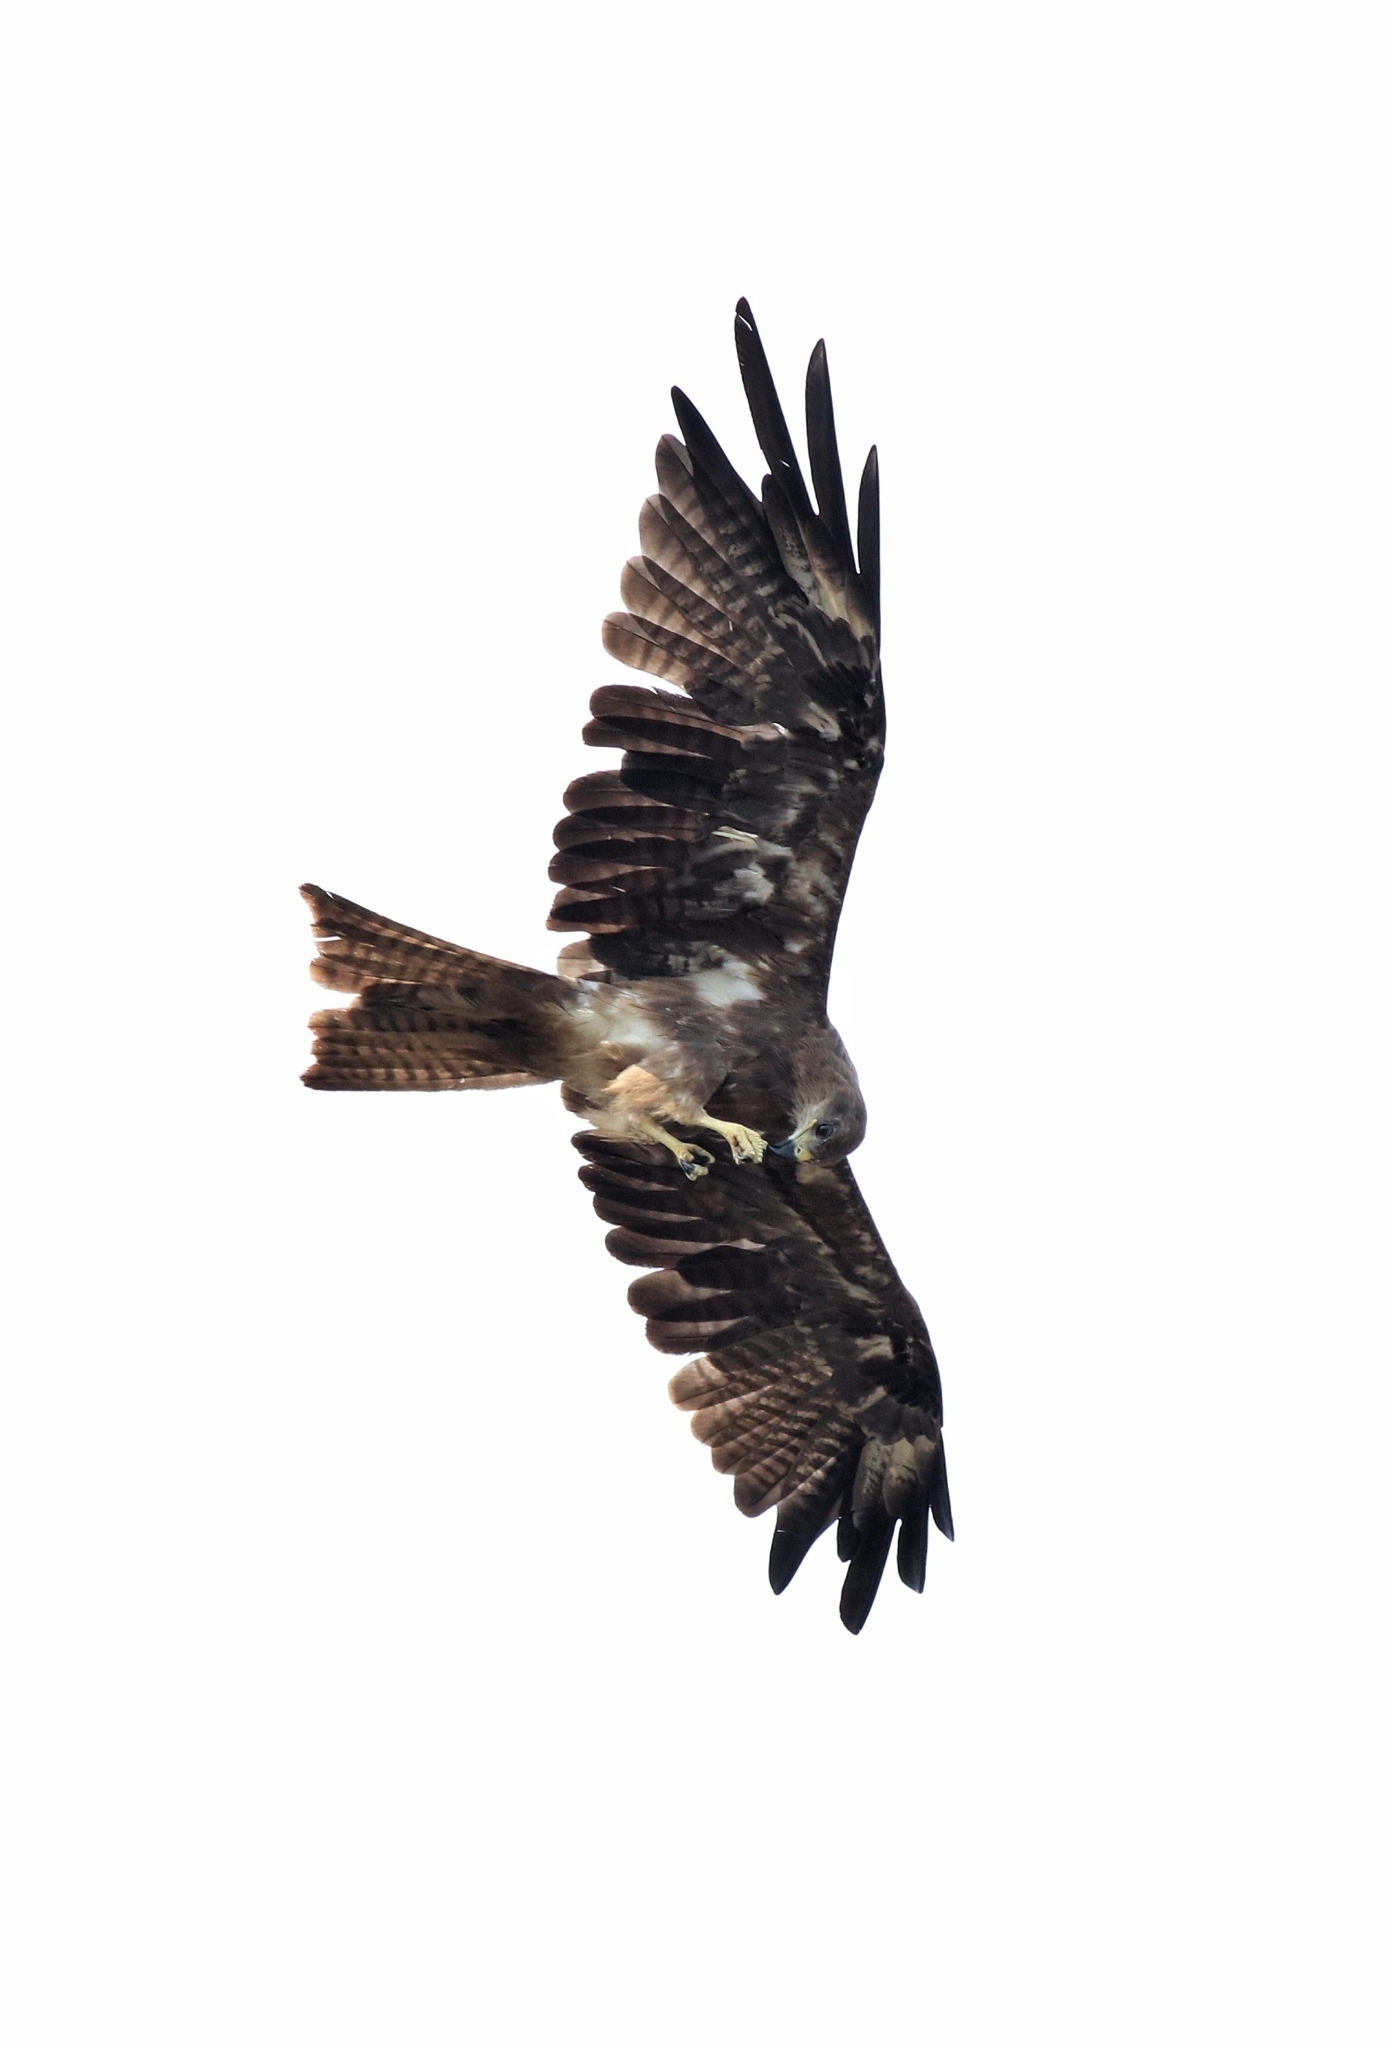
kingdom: Animalia
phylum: Chordata
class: Aves
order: Accipitriformes
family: Accipitridae
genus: Milvus
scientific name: Milvus migrans
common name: Black kite
